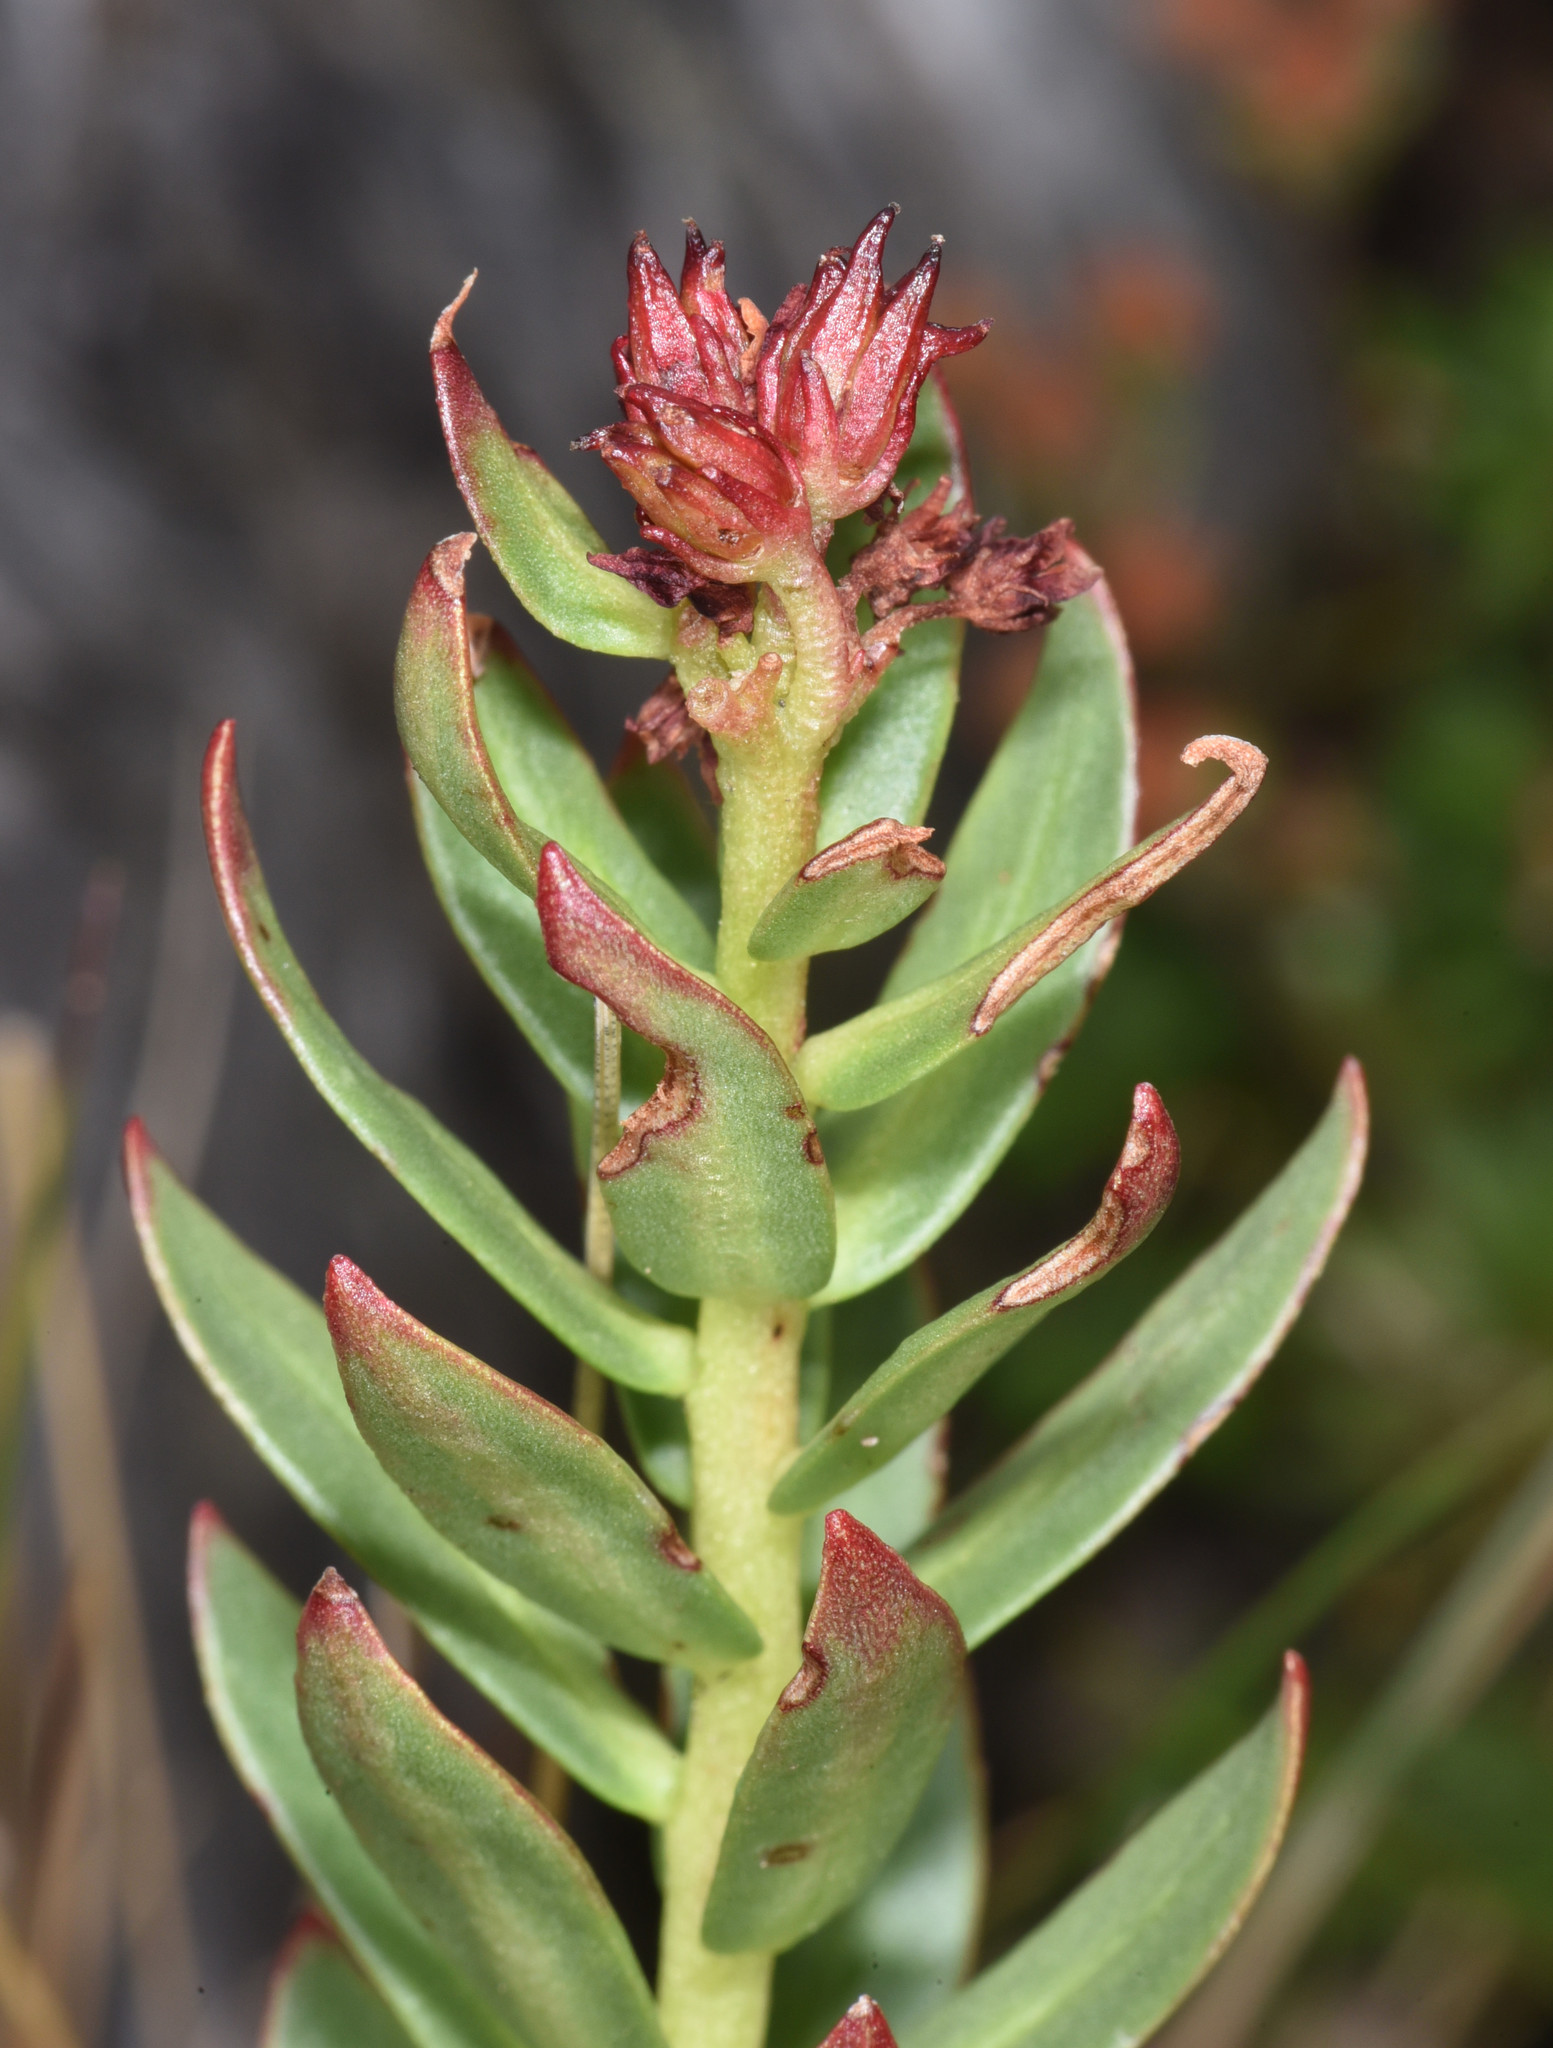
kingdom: Plantae
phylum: Tracheophyta
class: Magnoliopsida
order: Saxifragales
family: Crassulaceae
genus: Rhodiola
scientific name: Rhodiola integrifolia
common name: Western roseroot
